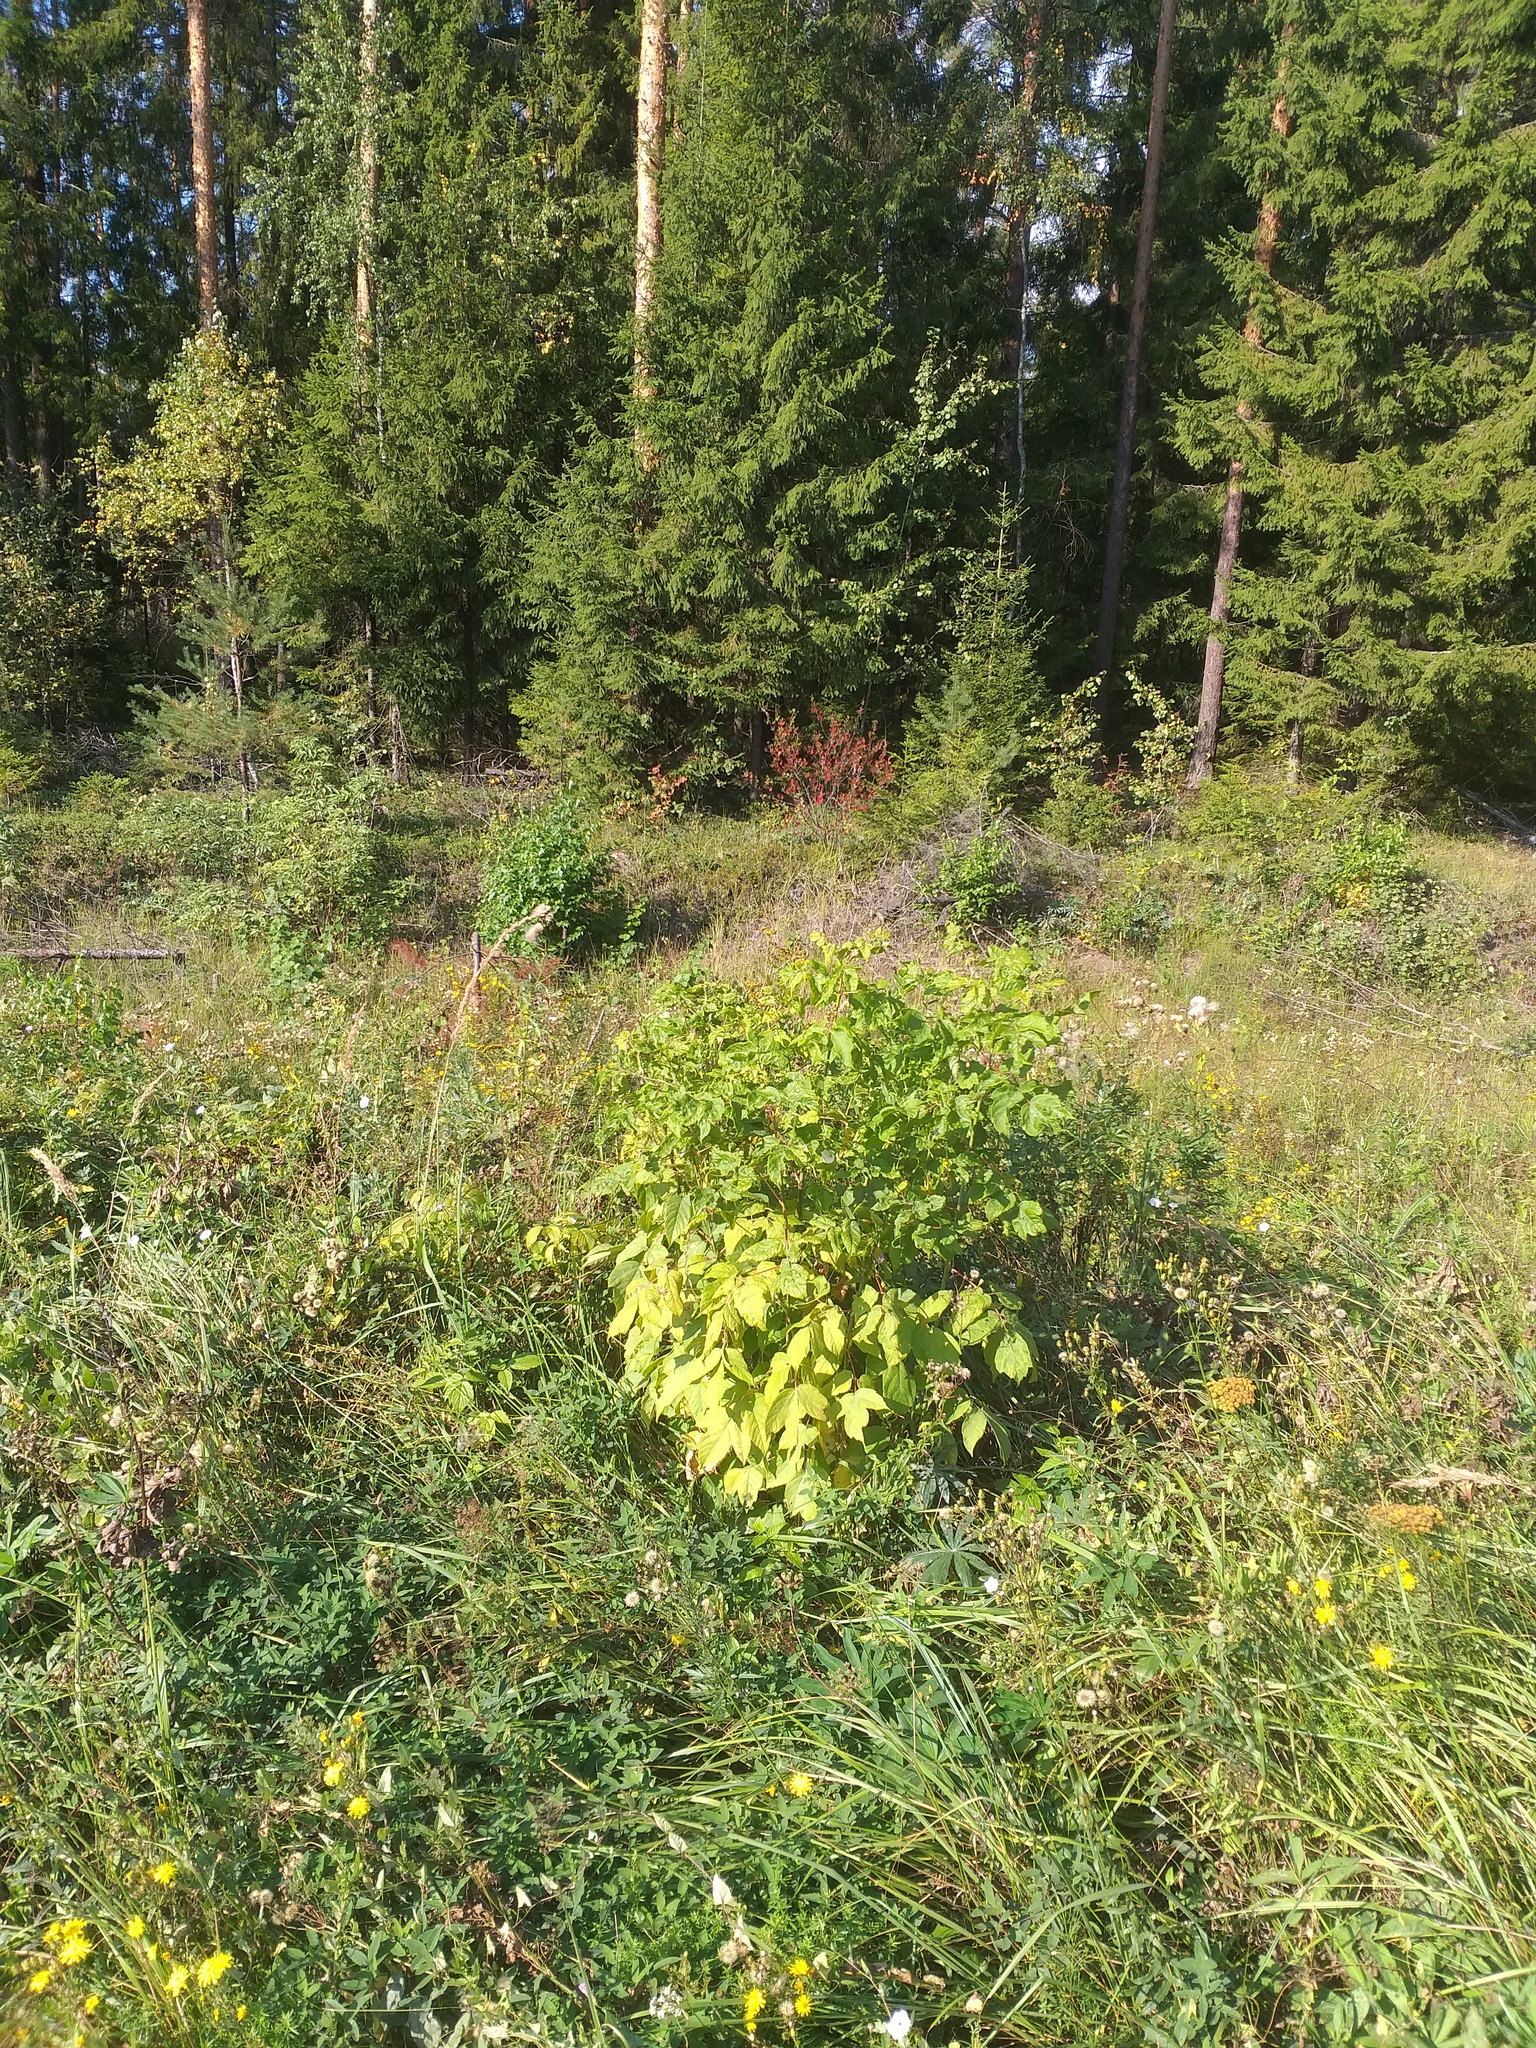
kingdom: Plantae
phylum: Tracheophyta
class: Magnoliopsida
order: Sapindales
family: Sapindaceae
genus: Acer
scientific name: Acer negundo
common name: Ashleaf maple
